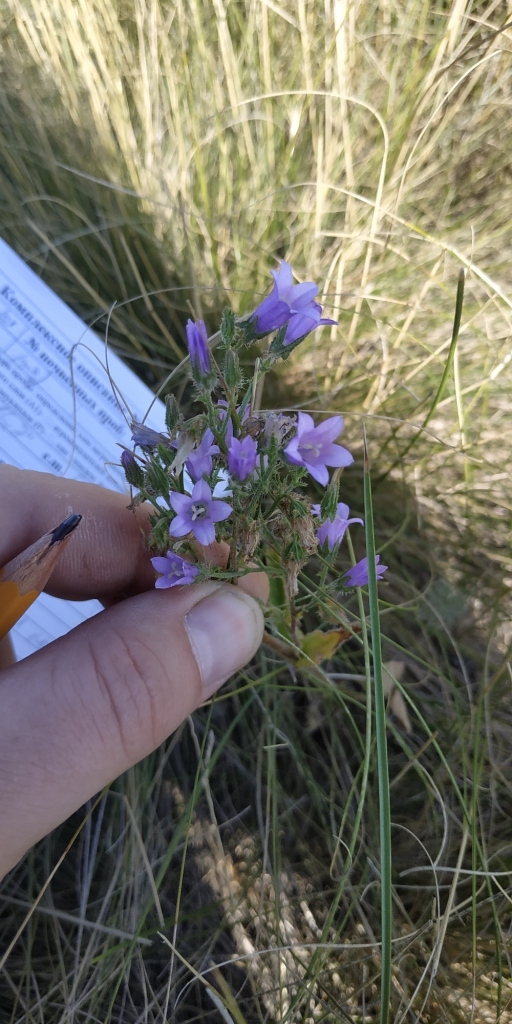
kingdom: Plantae
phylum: Tracheophyta
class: Magnoliopsida
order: Asterales
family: Campanulaceae
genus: Campanula
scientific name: Campanula sibirica
